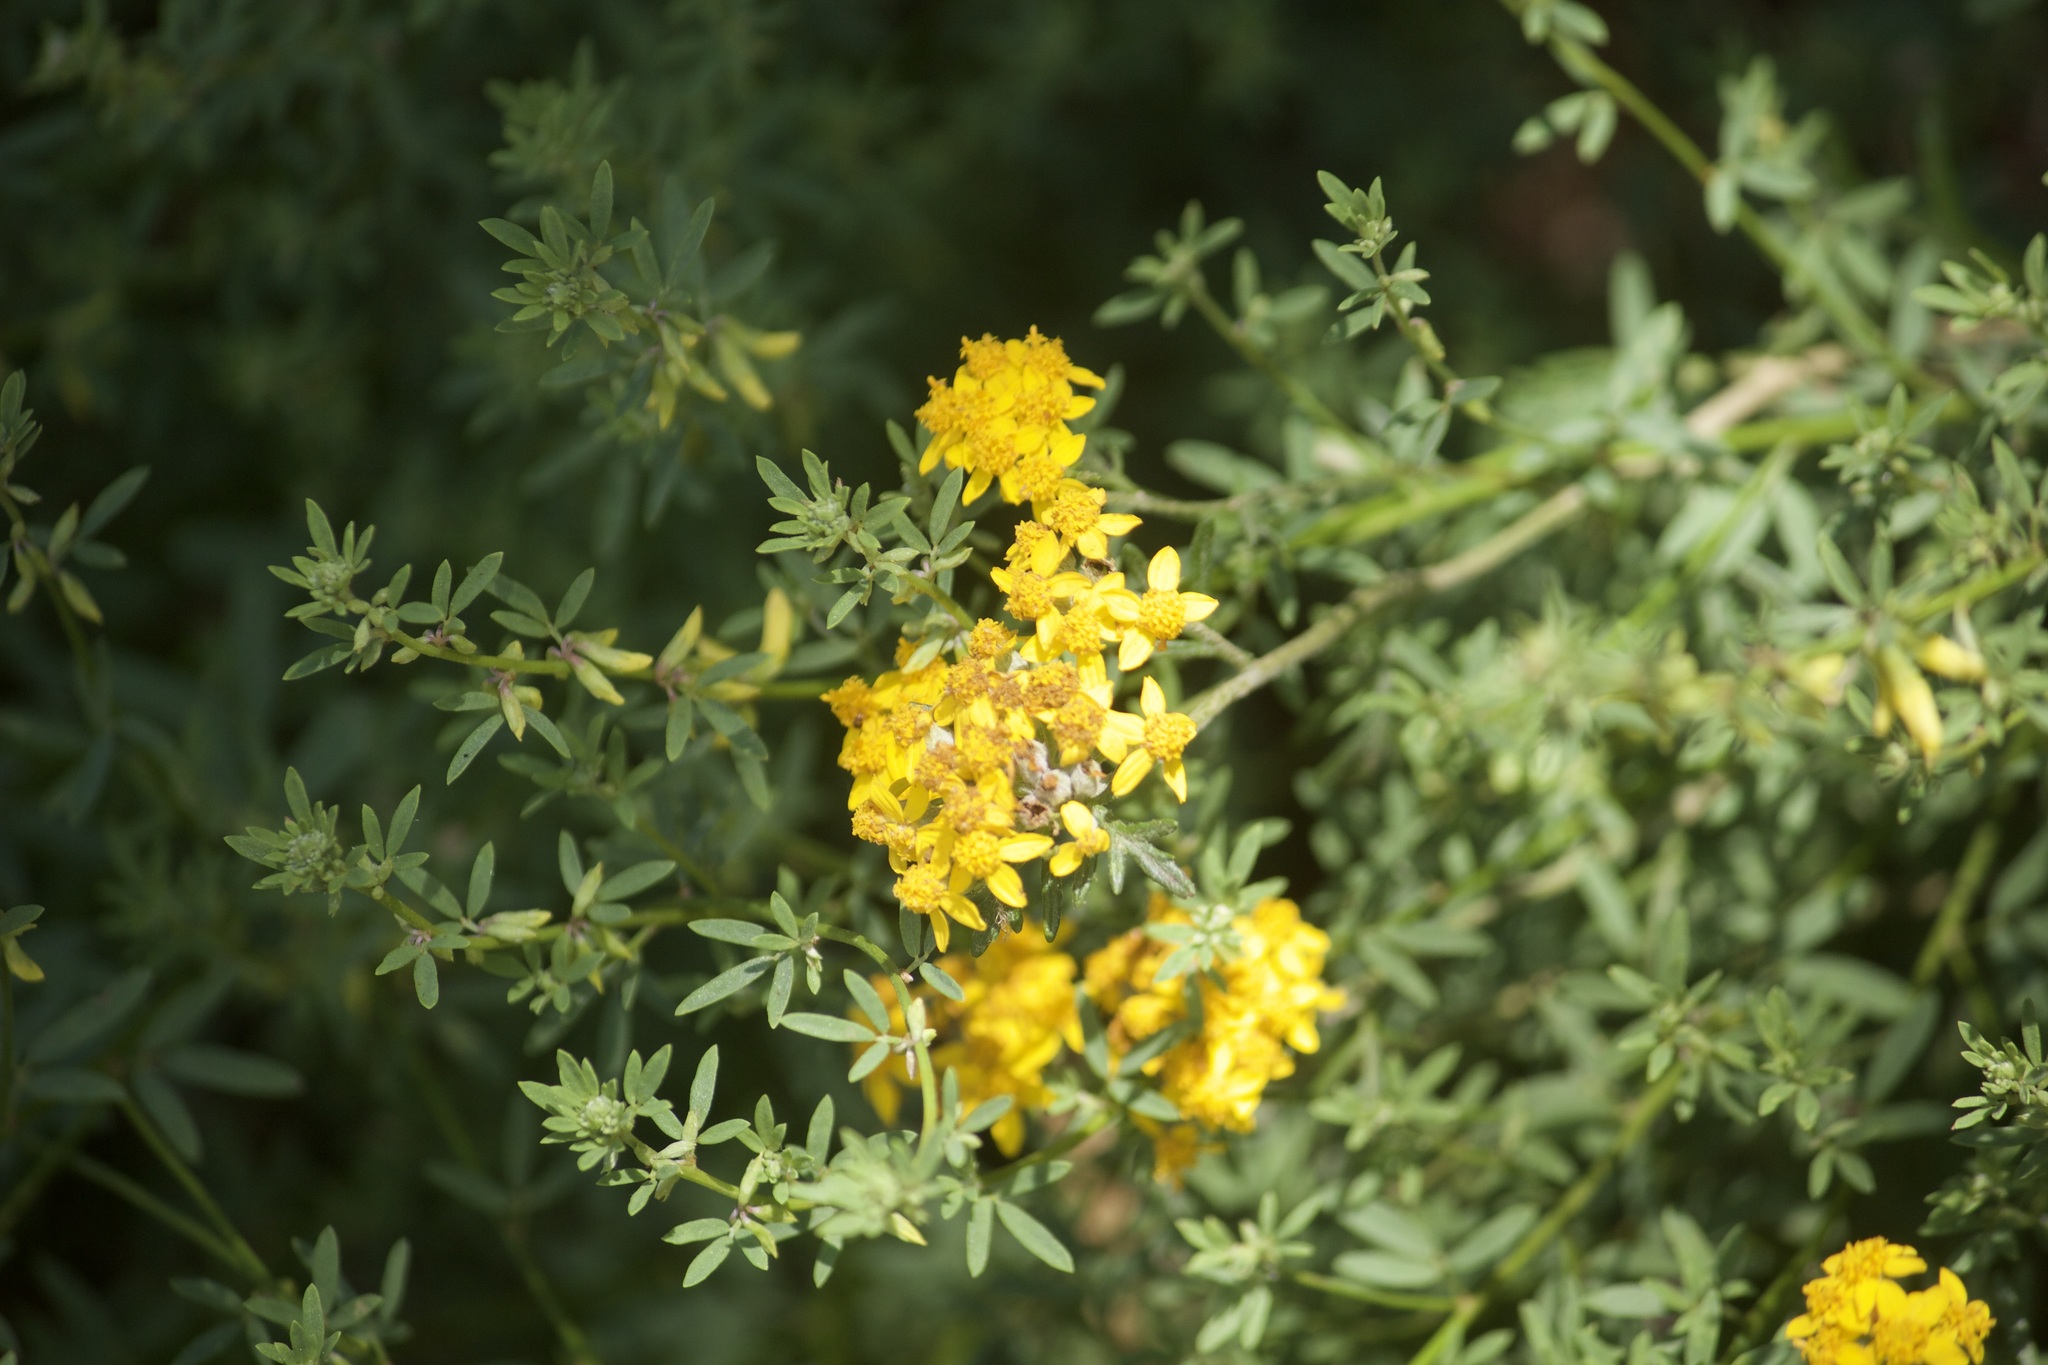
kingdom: Plantae
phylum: Tracheophyta
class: Magnoliopsida
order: Fabales
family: Fabaceae
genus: Acmispon
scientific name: Acmispon glaber
